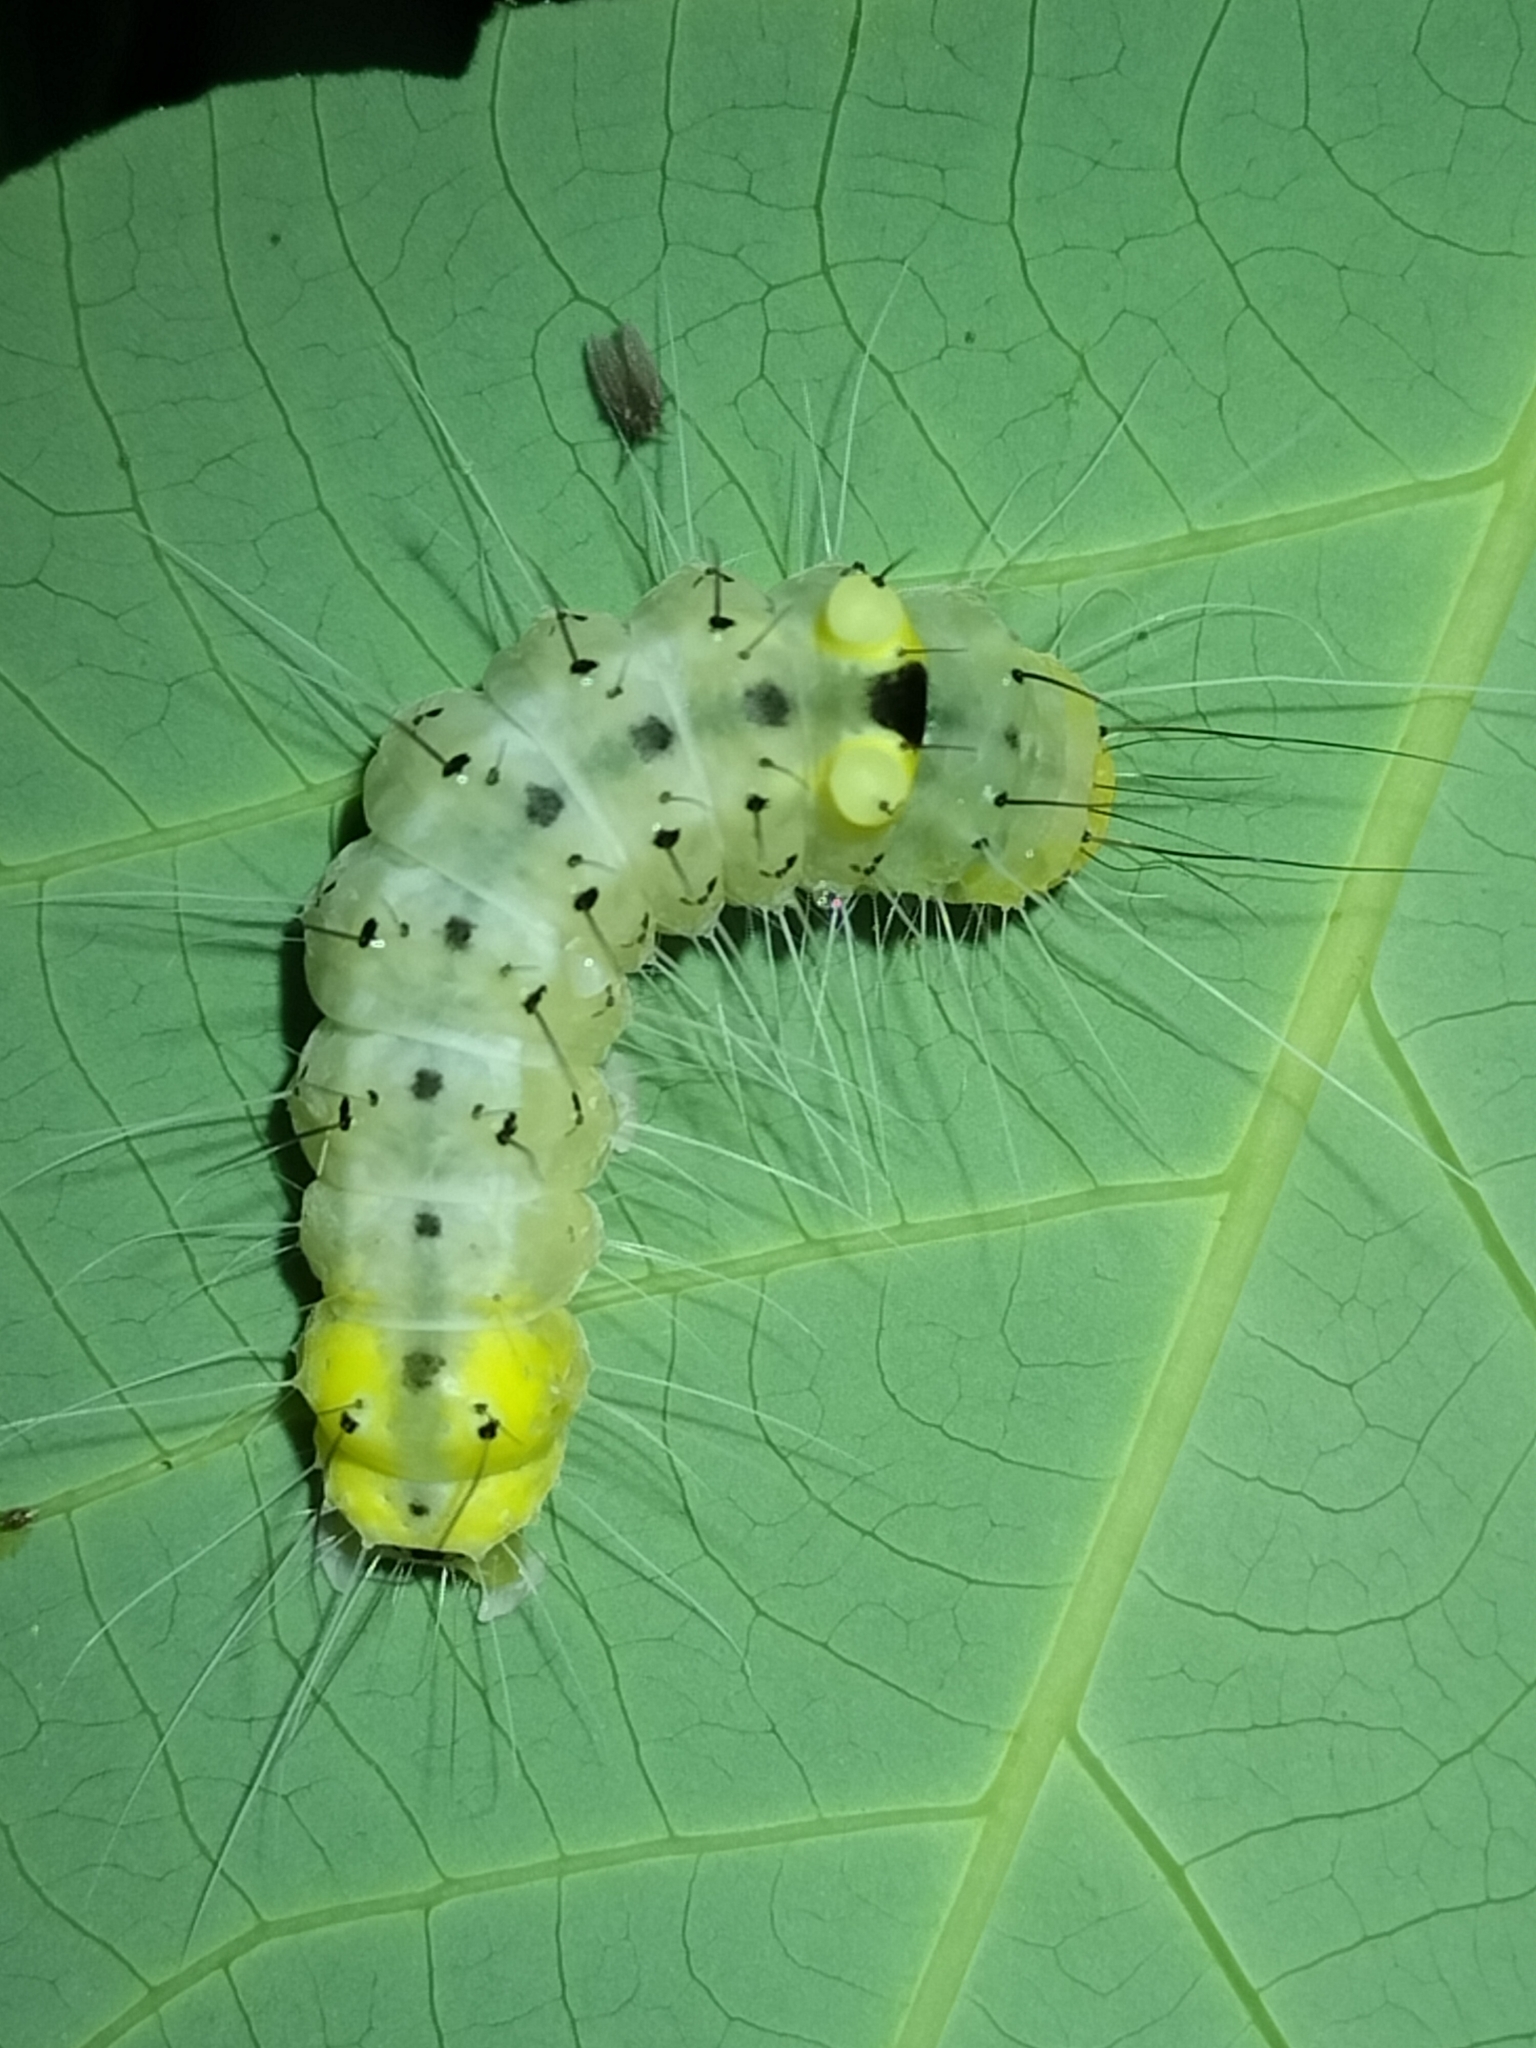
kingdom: Animalia
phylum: Arthropoda
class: Insecta
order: Lepidoptera
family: Nolidae
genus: Gadirtha
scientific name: Gadirtha inexacta
